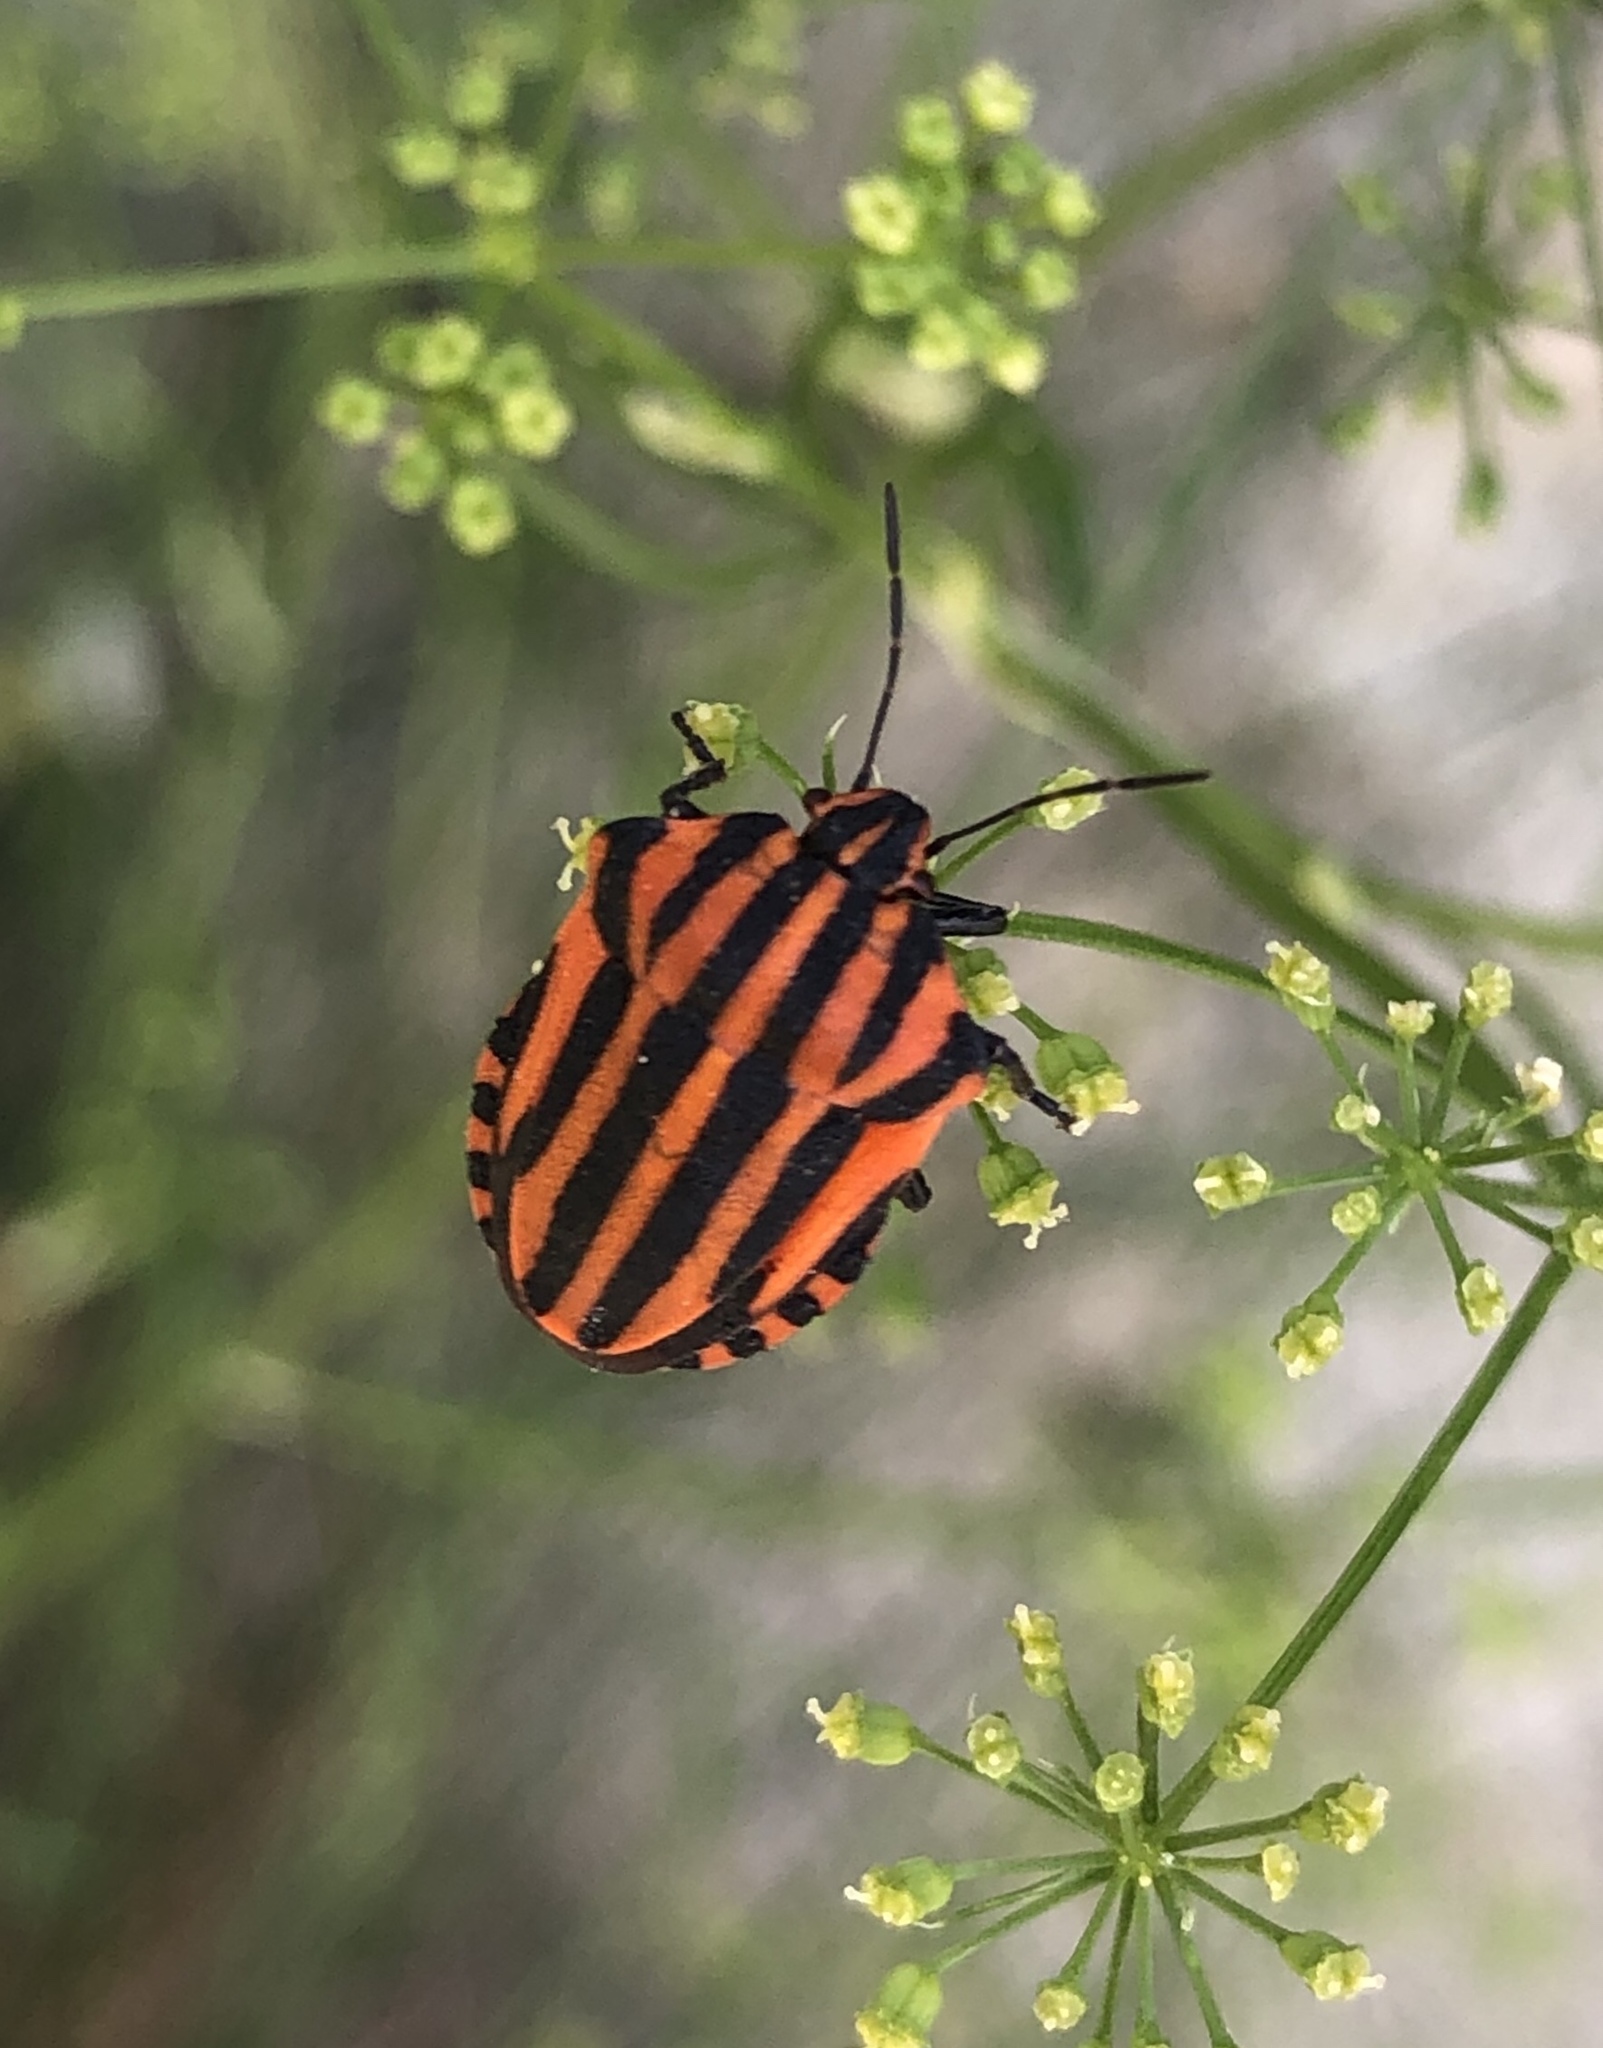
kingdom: Animalia
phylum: Arthropoda
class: Insecta
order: Hemiptera
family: Pentatomidae
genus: Graphosoma
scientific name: Graphosoma italicum
